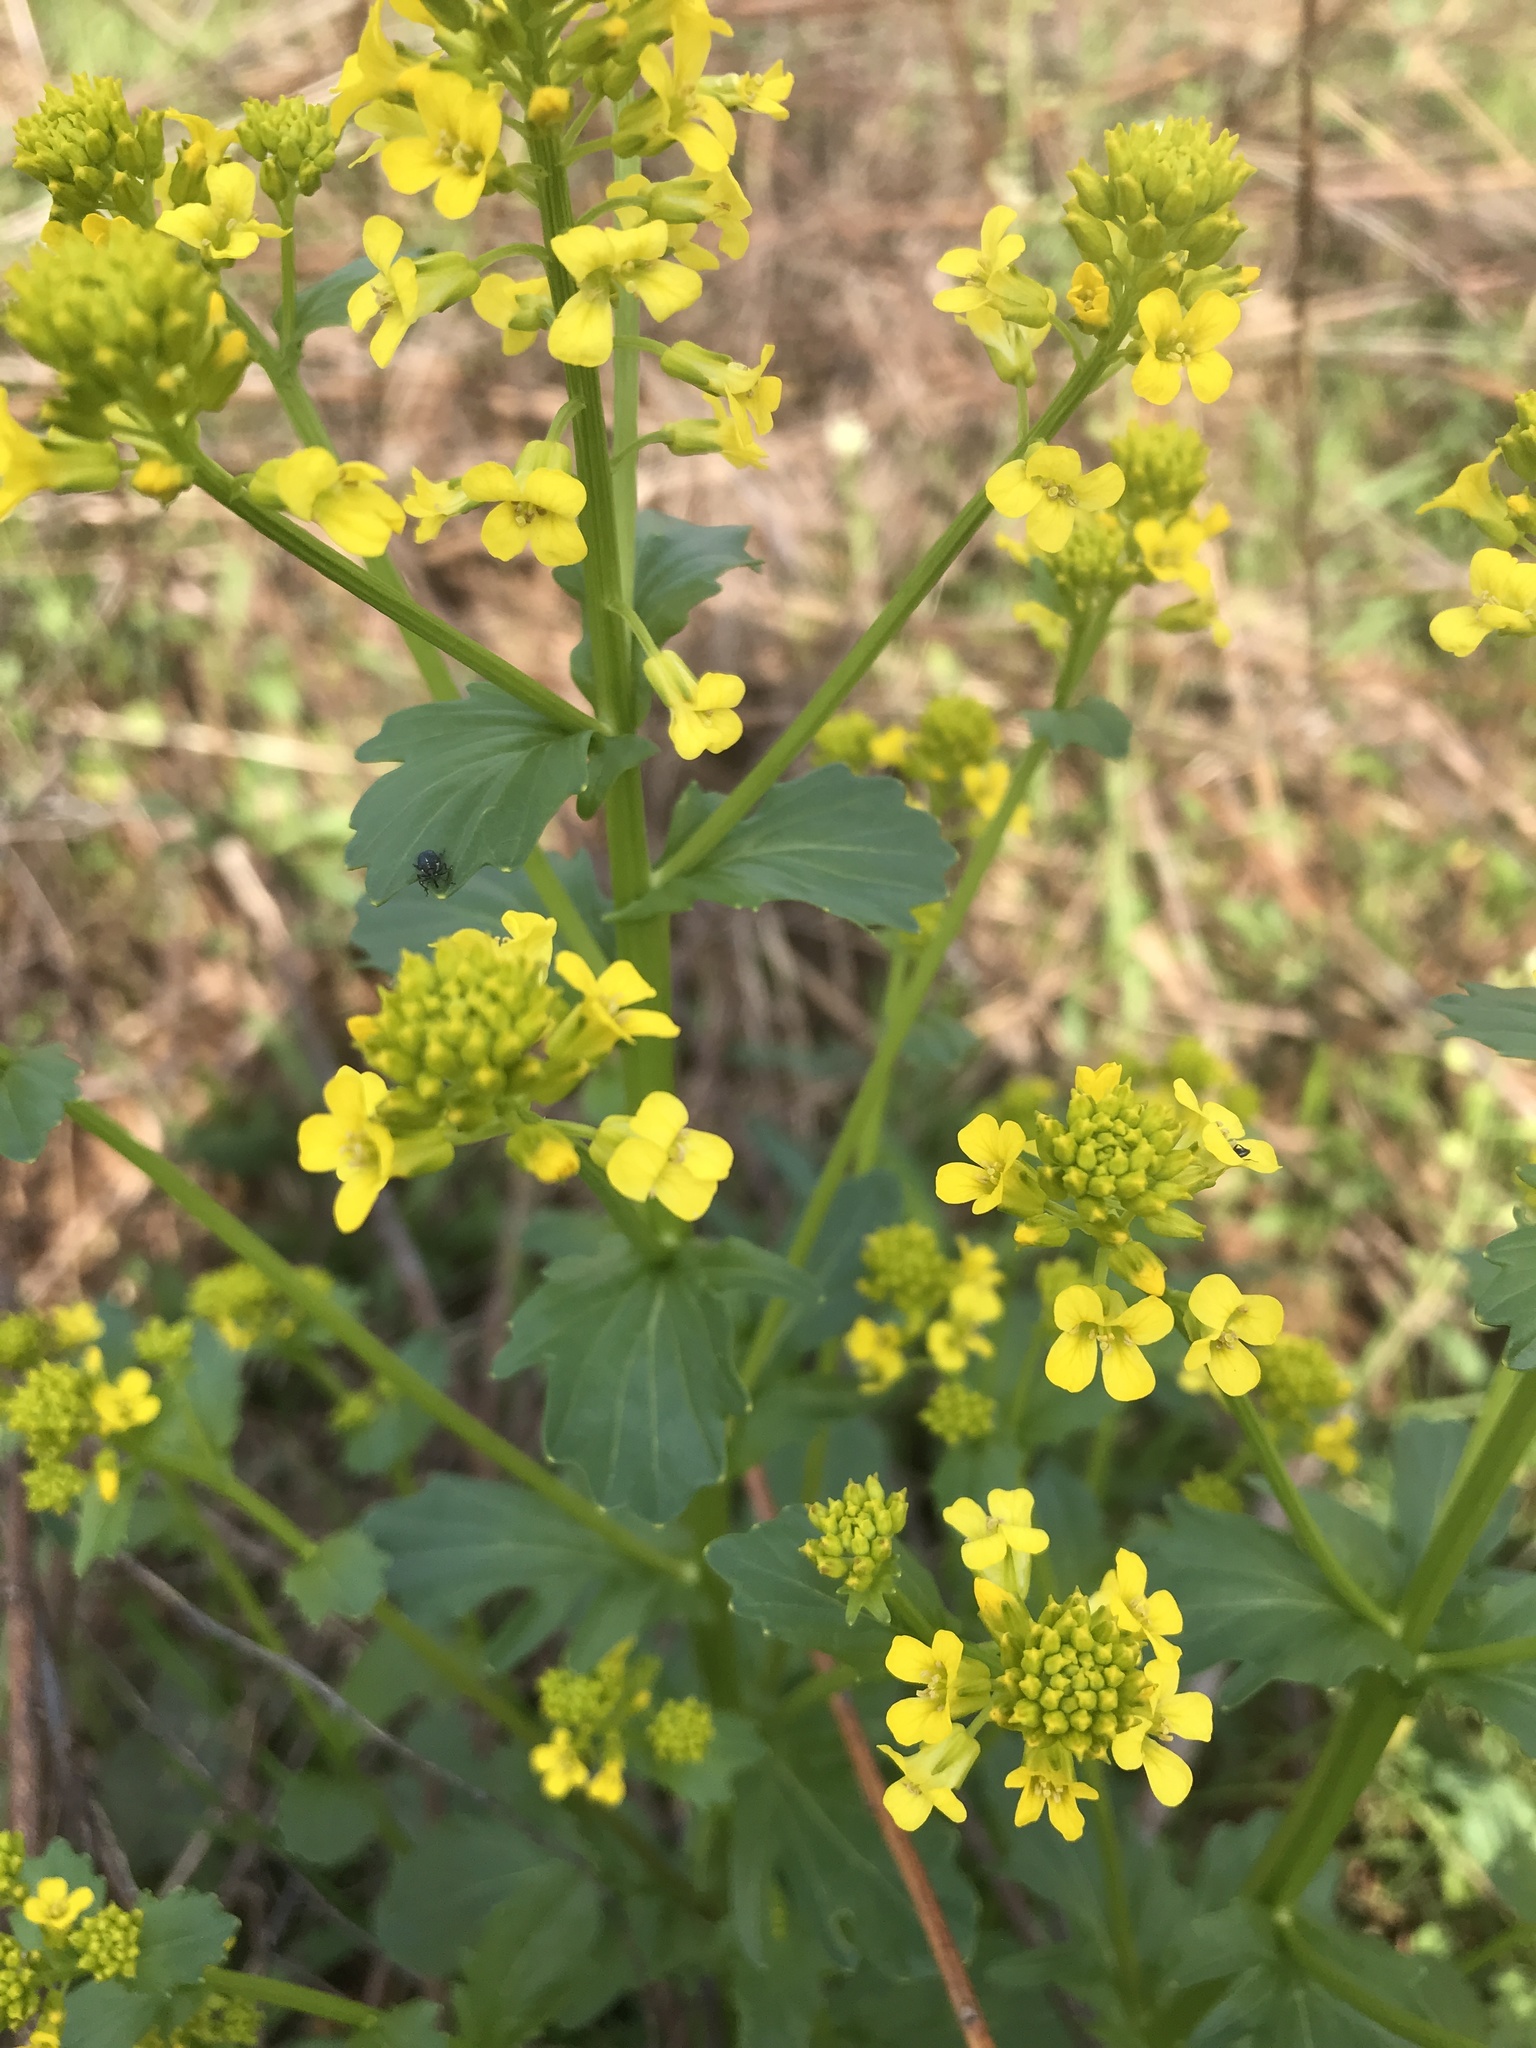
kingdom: Plantae
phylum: Tracheophyta
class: Magnoliopsida
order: Brassicales
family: Brassicaceae
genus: Barbarea
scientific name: Barbarea vulgaris
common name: Cressy-greens
